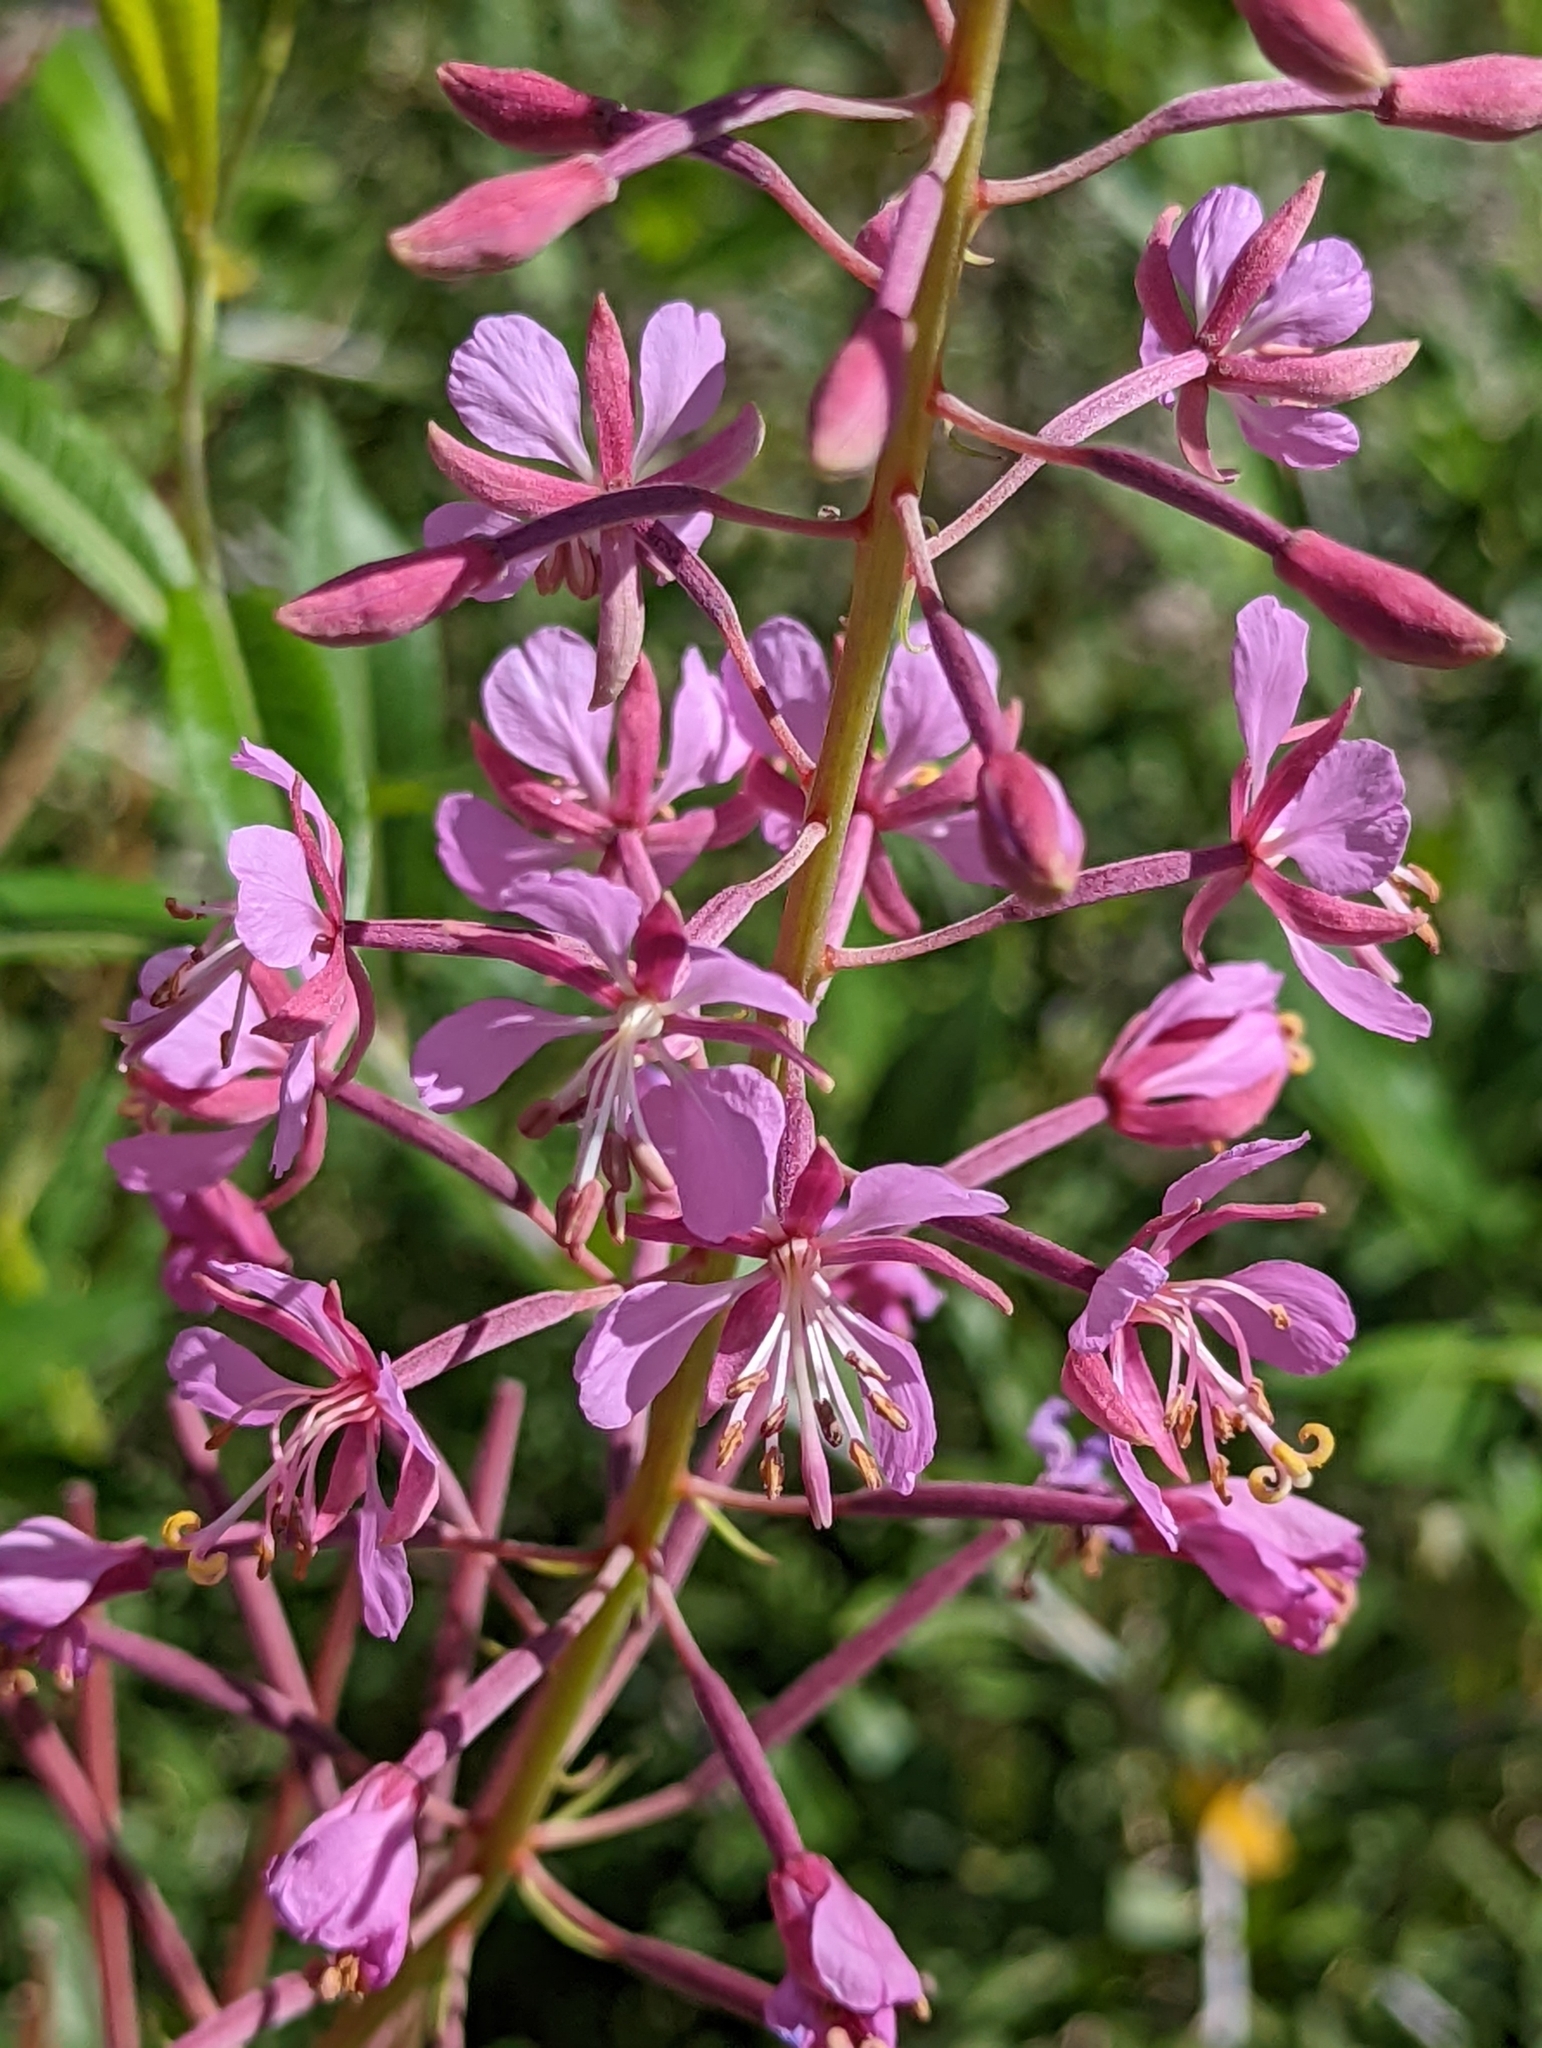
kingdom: Plantae
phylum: Tracheophyta
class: Magnoliopsida
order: Myrtales
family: Onagraceae
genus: Chamaenerion
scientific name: Chamaenerion angustifolium
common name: Fireweed
